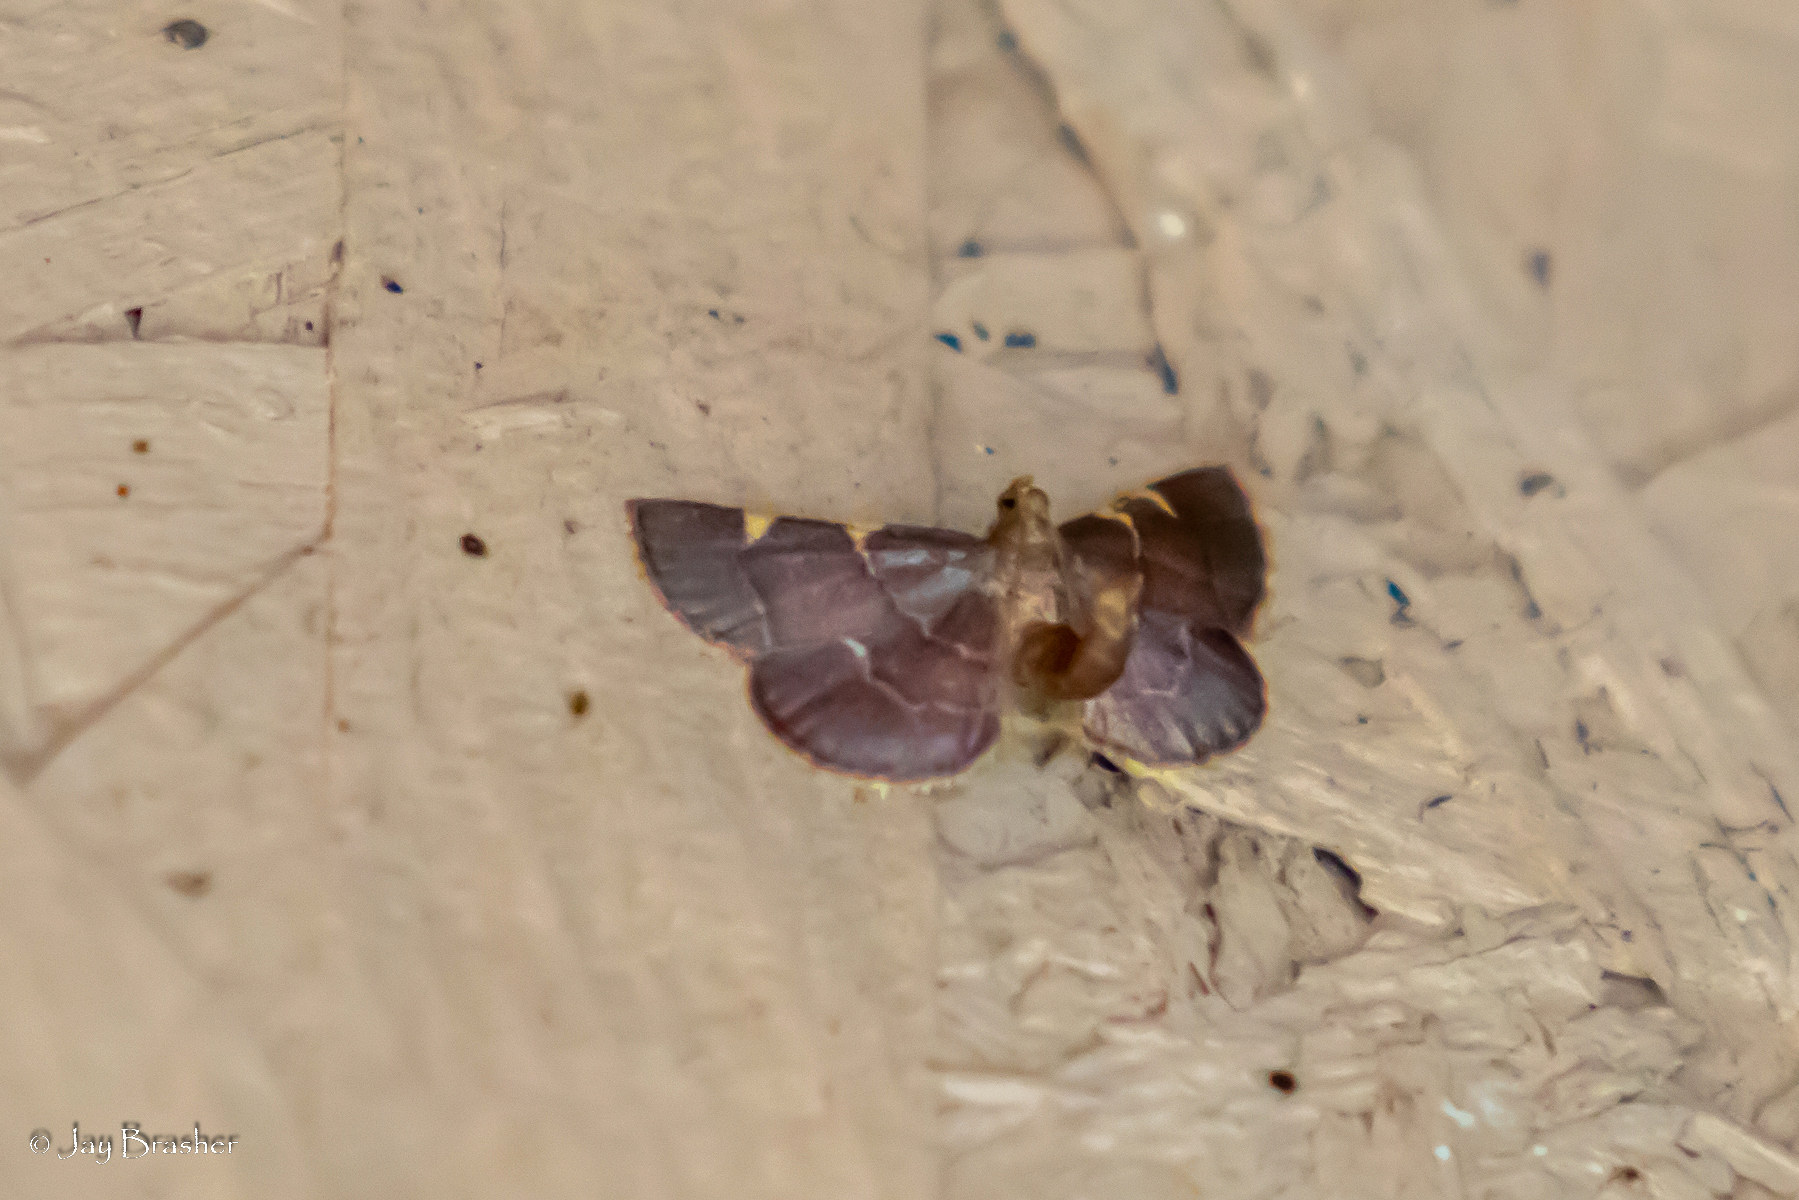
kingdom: Animalia
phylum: Arthropoda
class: Insecta
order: Lepidoptera
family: Pyralidae
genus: Hypsopygia
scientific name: Hypsopygia olinalis
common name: Yellow-fringed dolichomia moth
